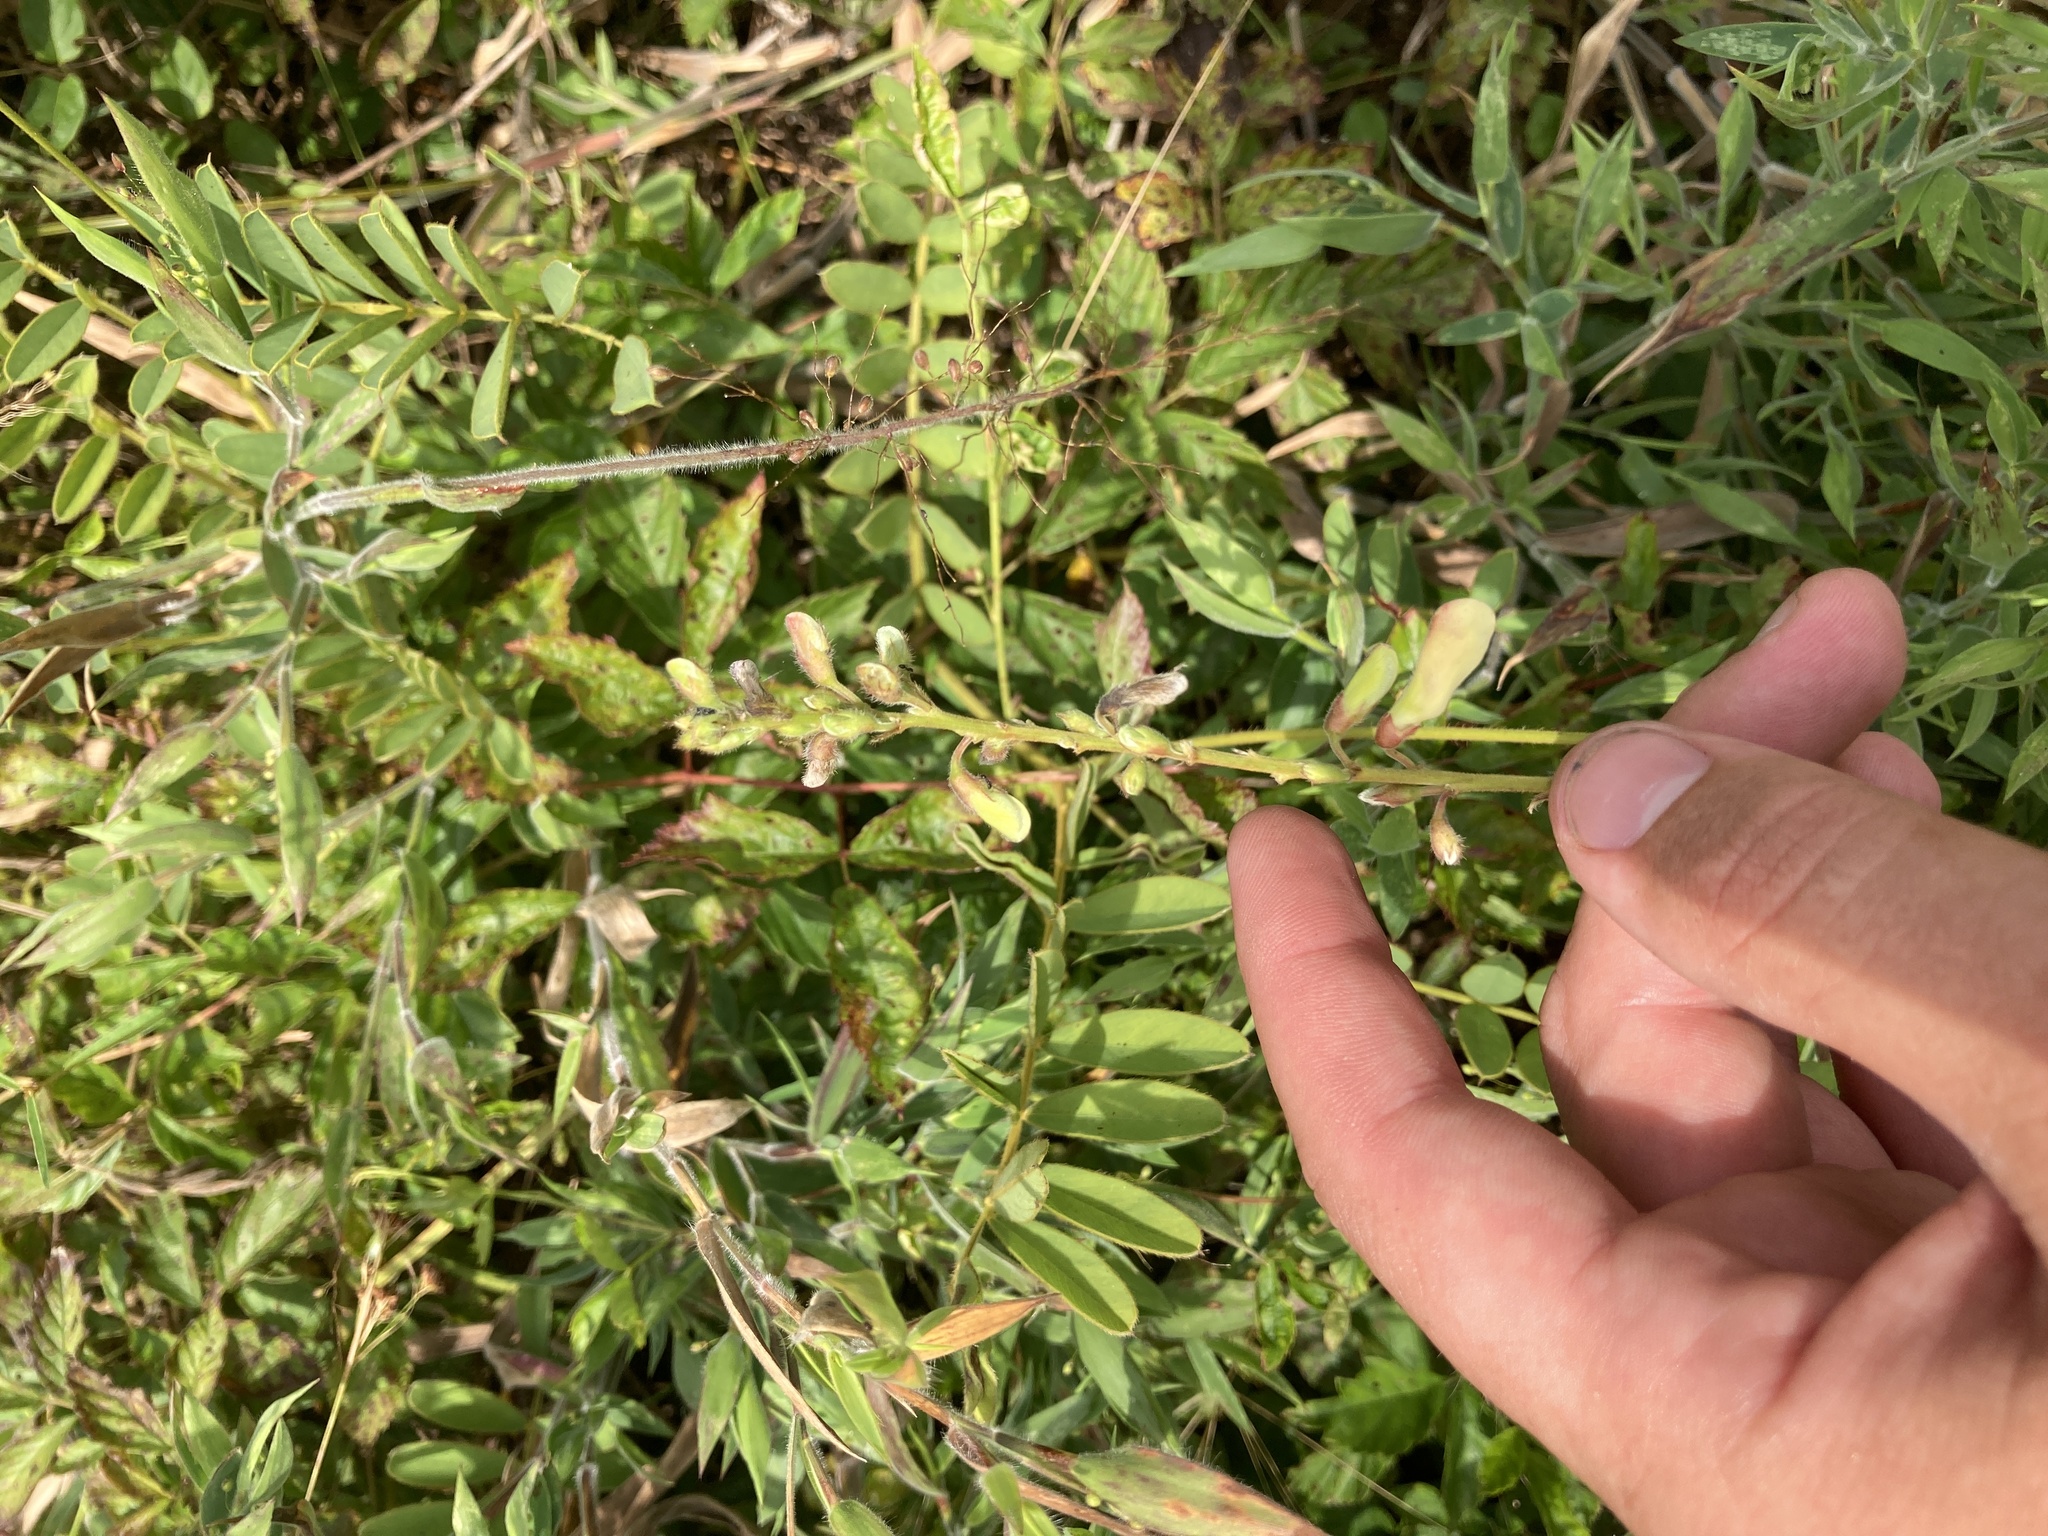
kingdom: Plantae
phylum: Tracheophyta
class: Magnoliopsida
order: Fabales
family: Fabaceae
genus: Tephrosia
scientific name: Tephrosia onobrychoides
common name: Multi-bloom hoary-pea
